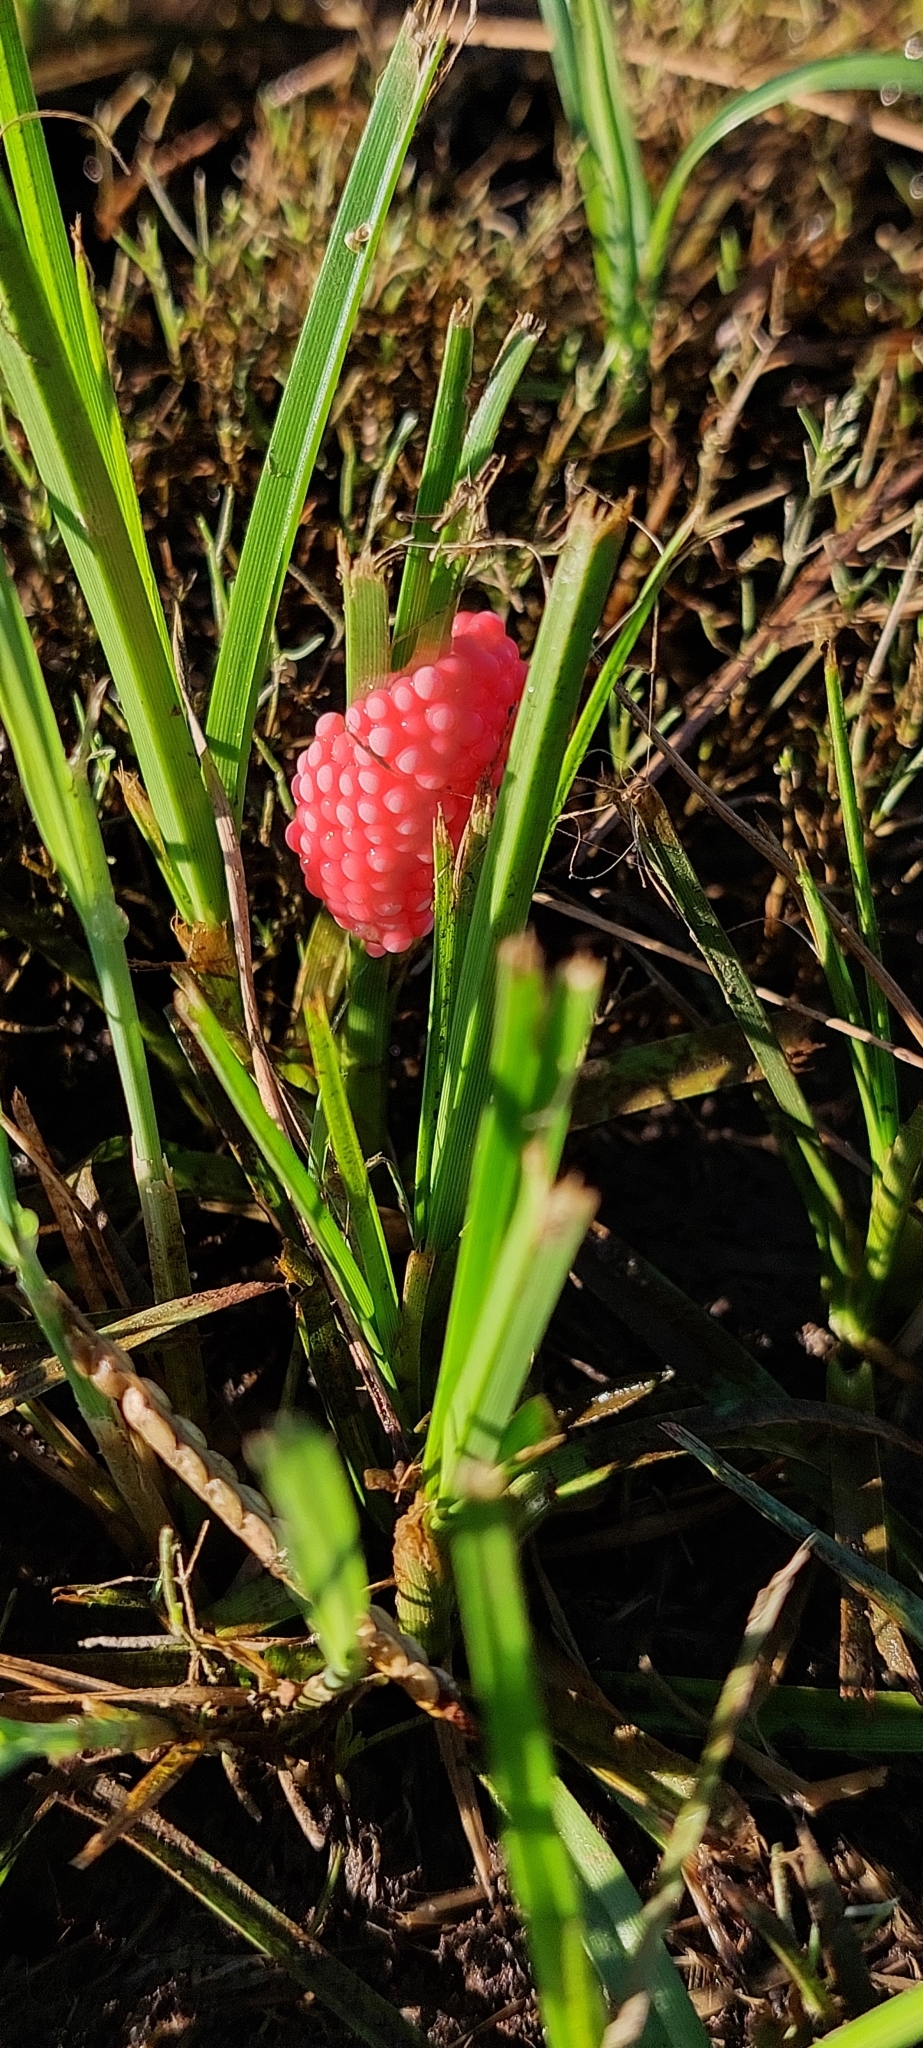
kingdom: Animalia
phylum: Mollusca
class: Gastropoda
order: Architaenioglossa
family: Ampullariidae
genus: Pomacea
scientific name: Pomacea canaliculata
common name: Channeled applesnail
